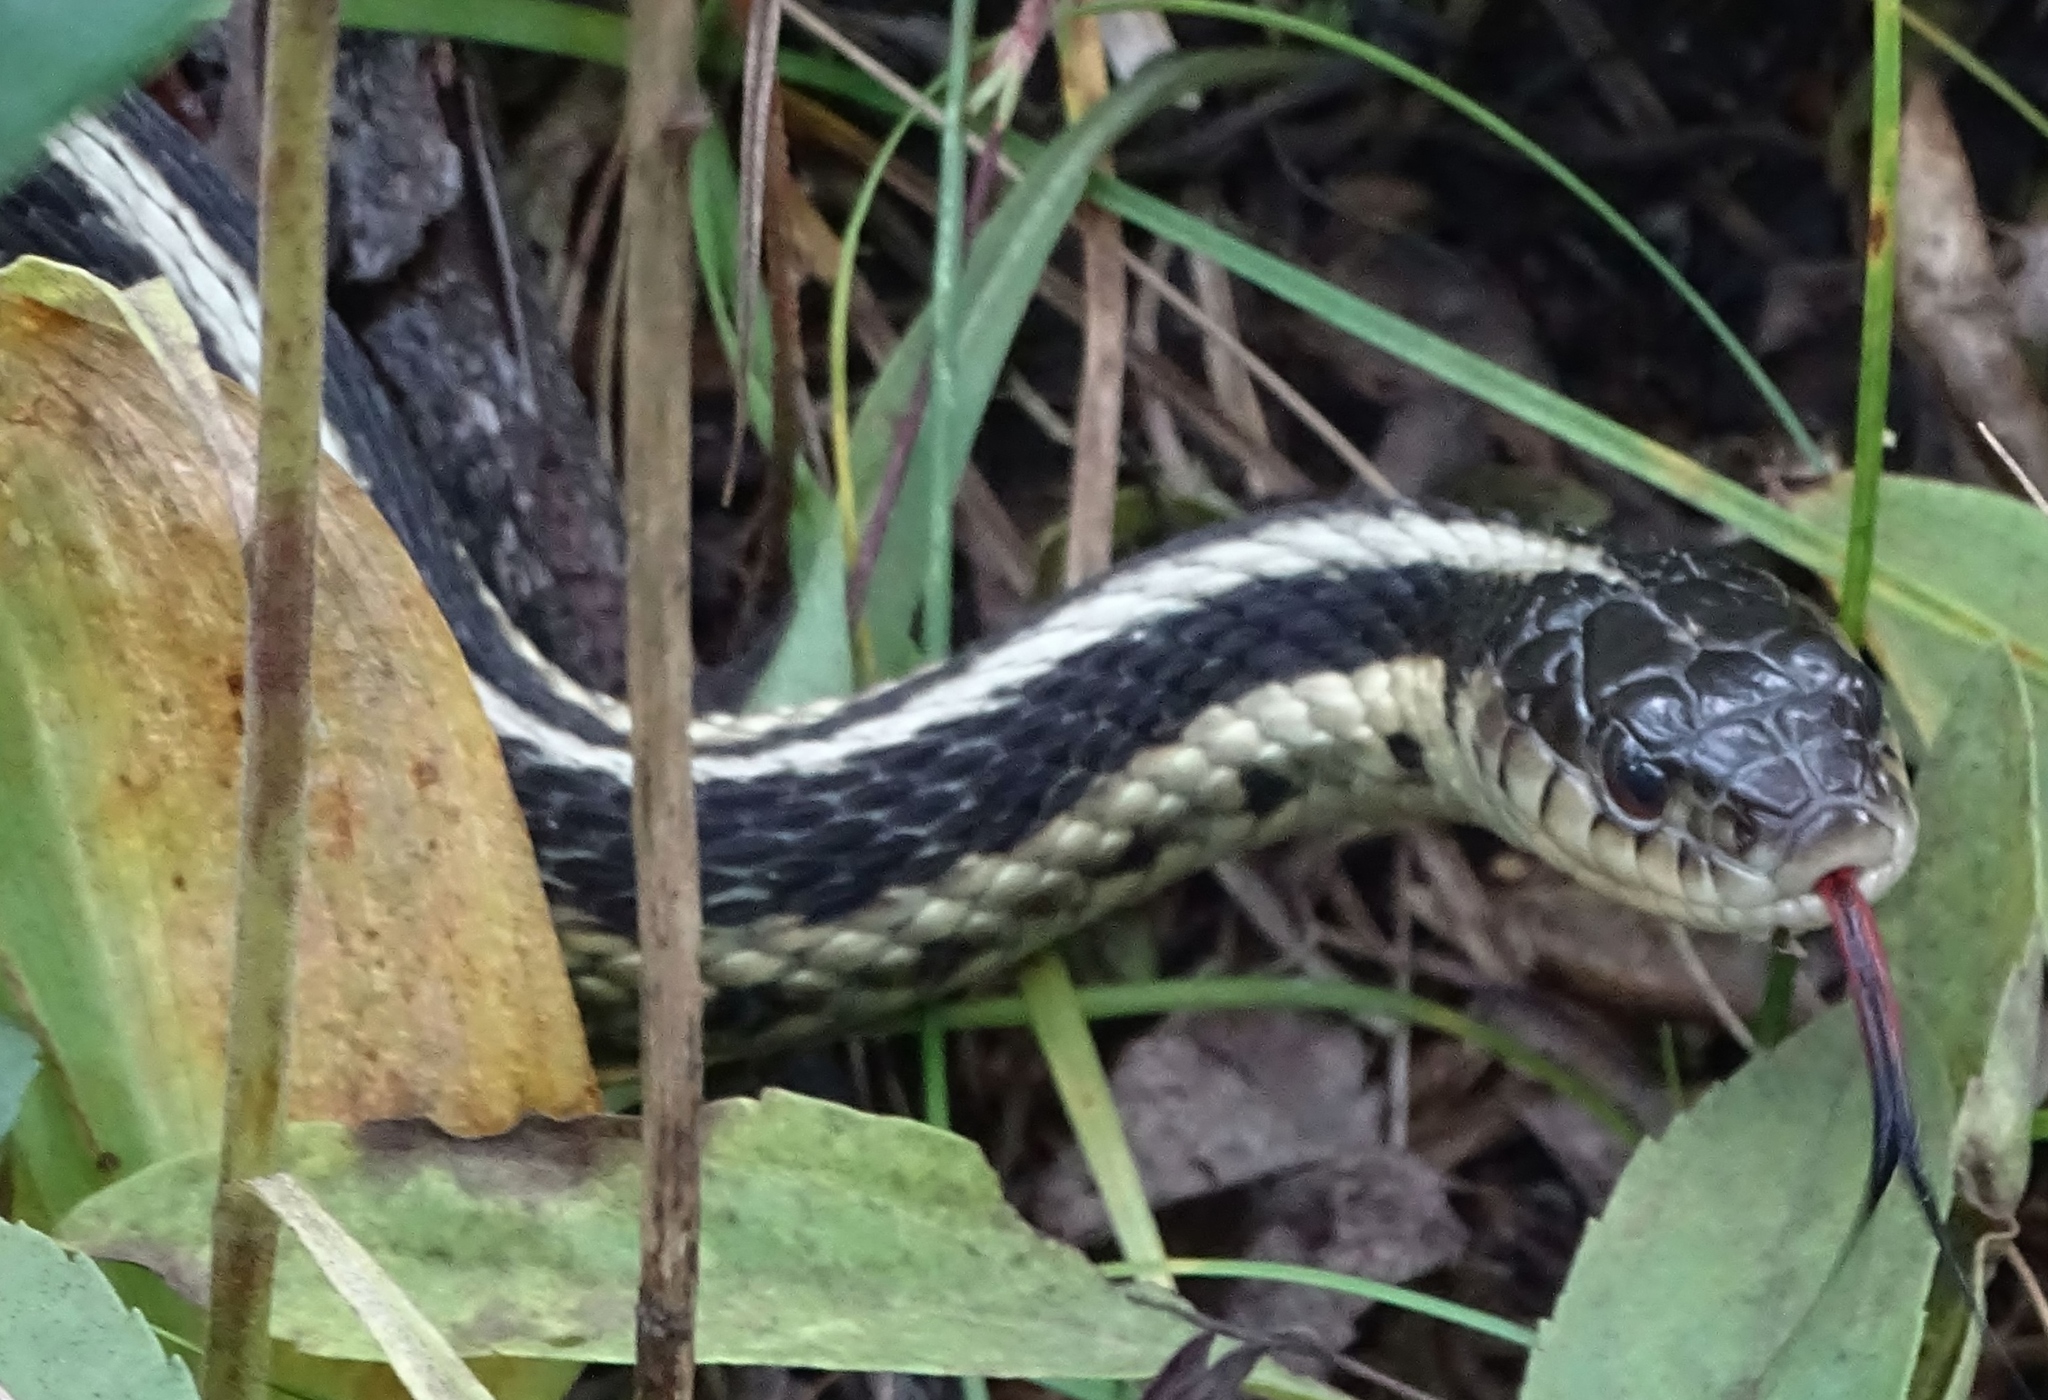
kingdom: Animalia
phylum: Chordata
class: Squamata
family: Colubridae
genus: Thamnophis
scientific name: Thamnophis sirtalis
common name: Common garter snake
